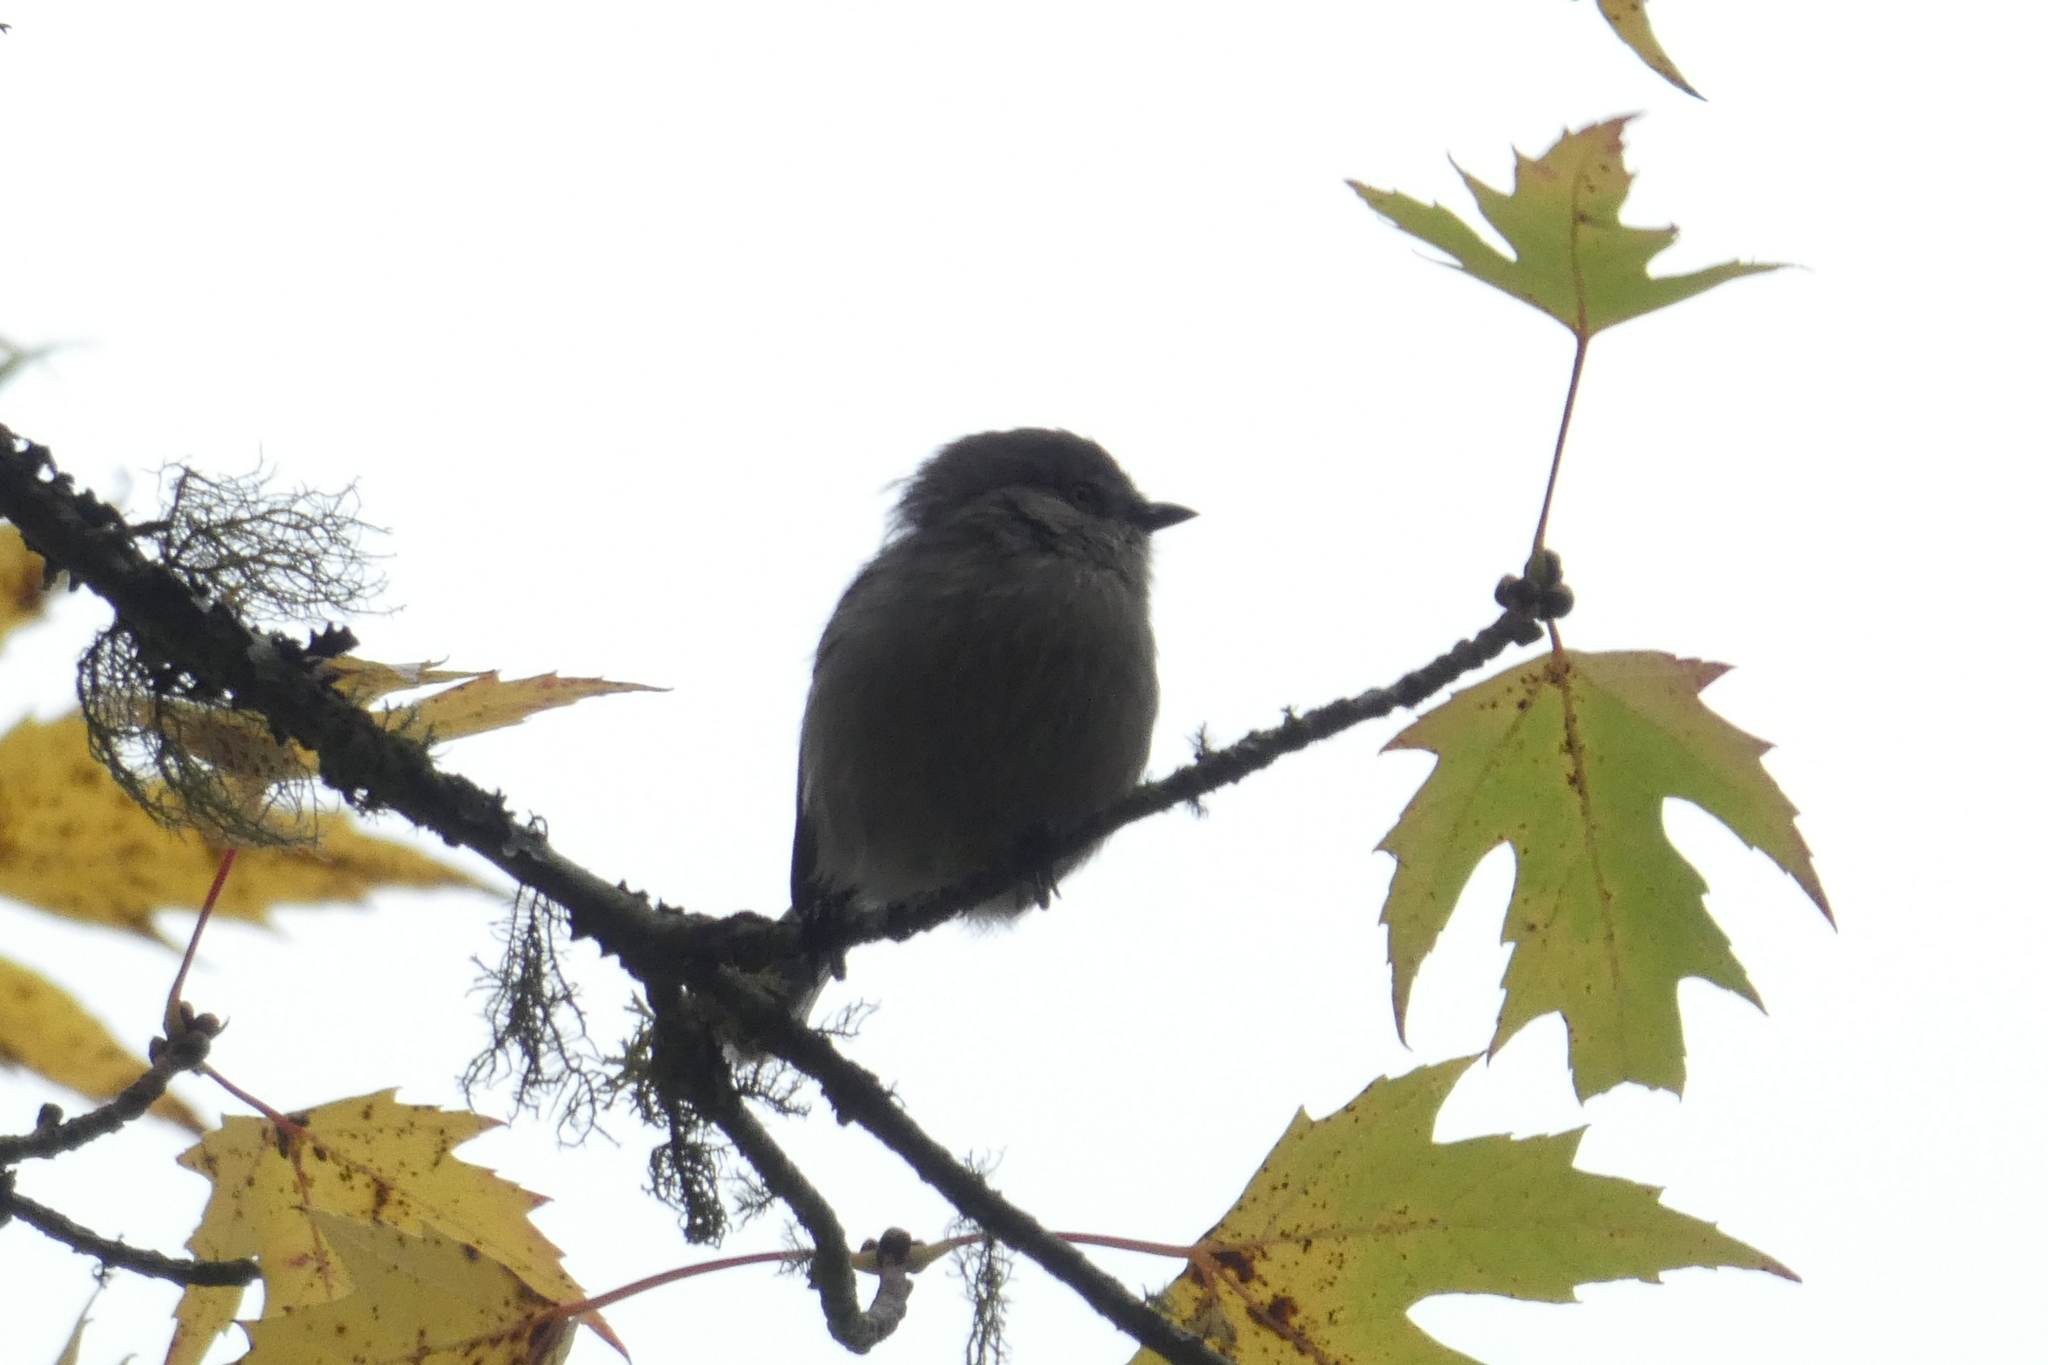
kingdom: Animalia
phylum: Chordata
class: Aves
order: Passeriformes
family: Aegithalidae
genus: Psaltriparus
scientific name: Psaltriparus minimus
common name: American bushtit
